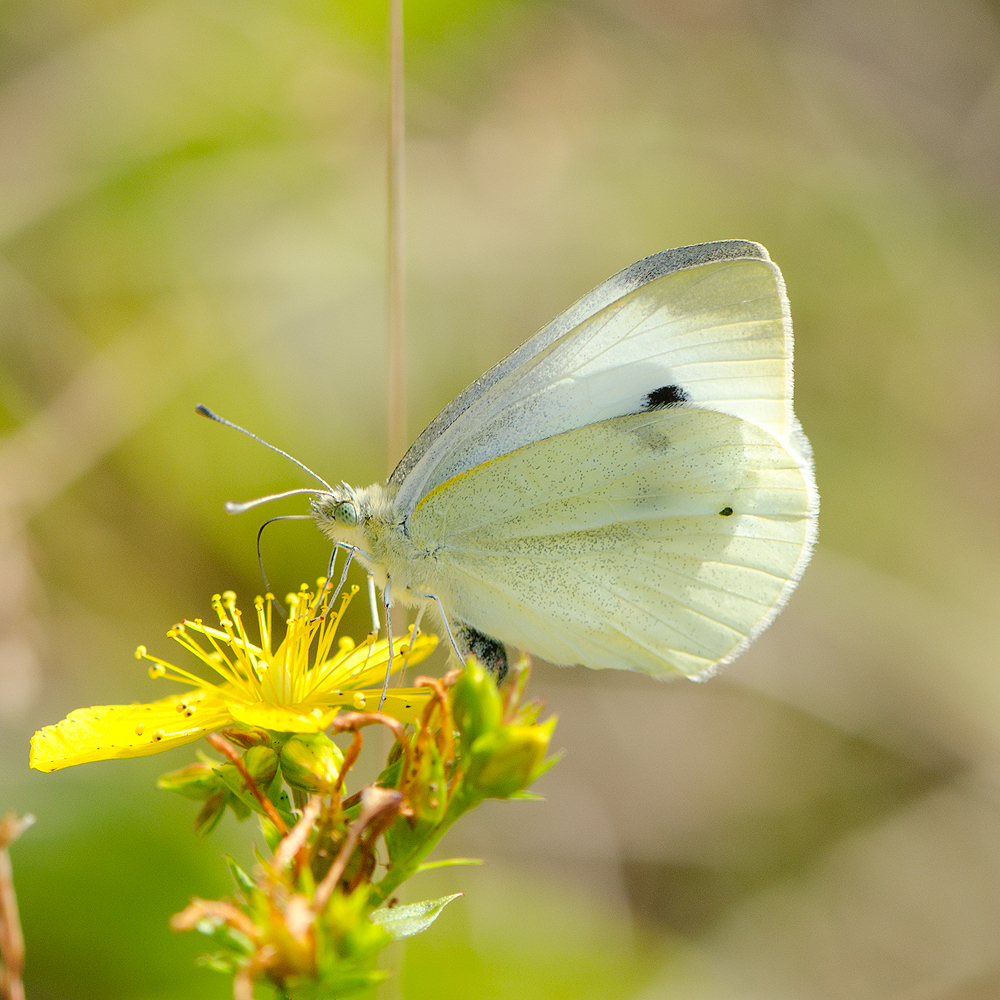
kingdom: Animalia
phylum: Arthropoda
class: Insecta
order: Lepidoptera
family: Pieridae
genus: Pieris
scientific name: Pieris rapae
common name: Small white
